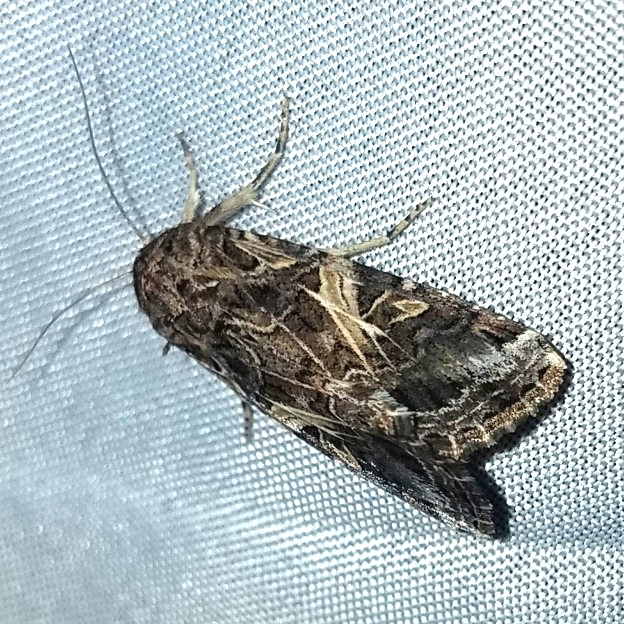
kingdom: Animalia
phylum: Arthropoda
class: Insecta
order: Lepidoptera
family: Noctuidae
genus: Spodoptera
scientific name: Spodoptera ornithogalli
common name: Yellow-striped armyworm
